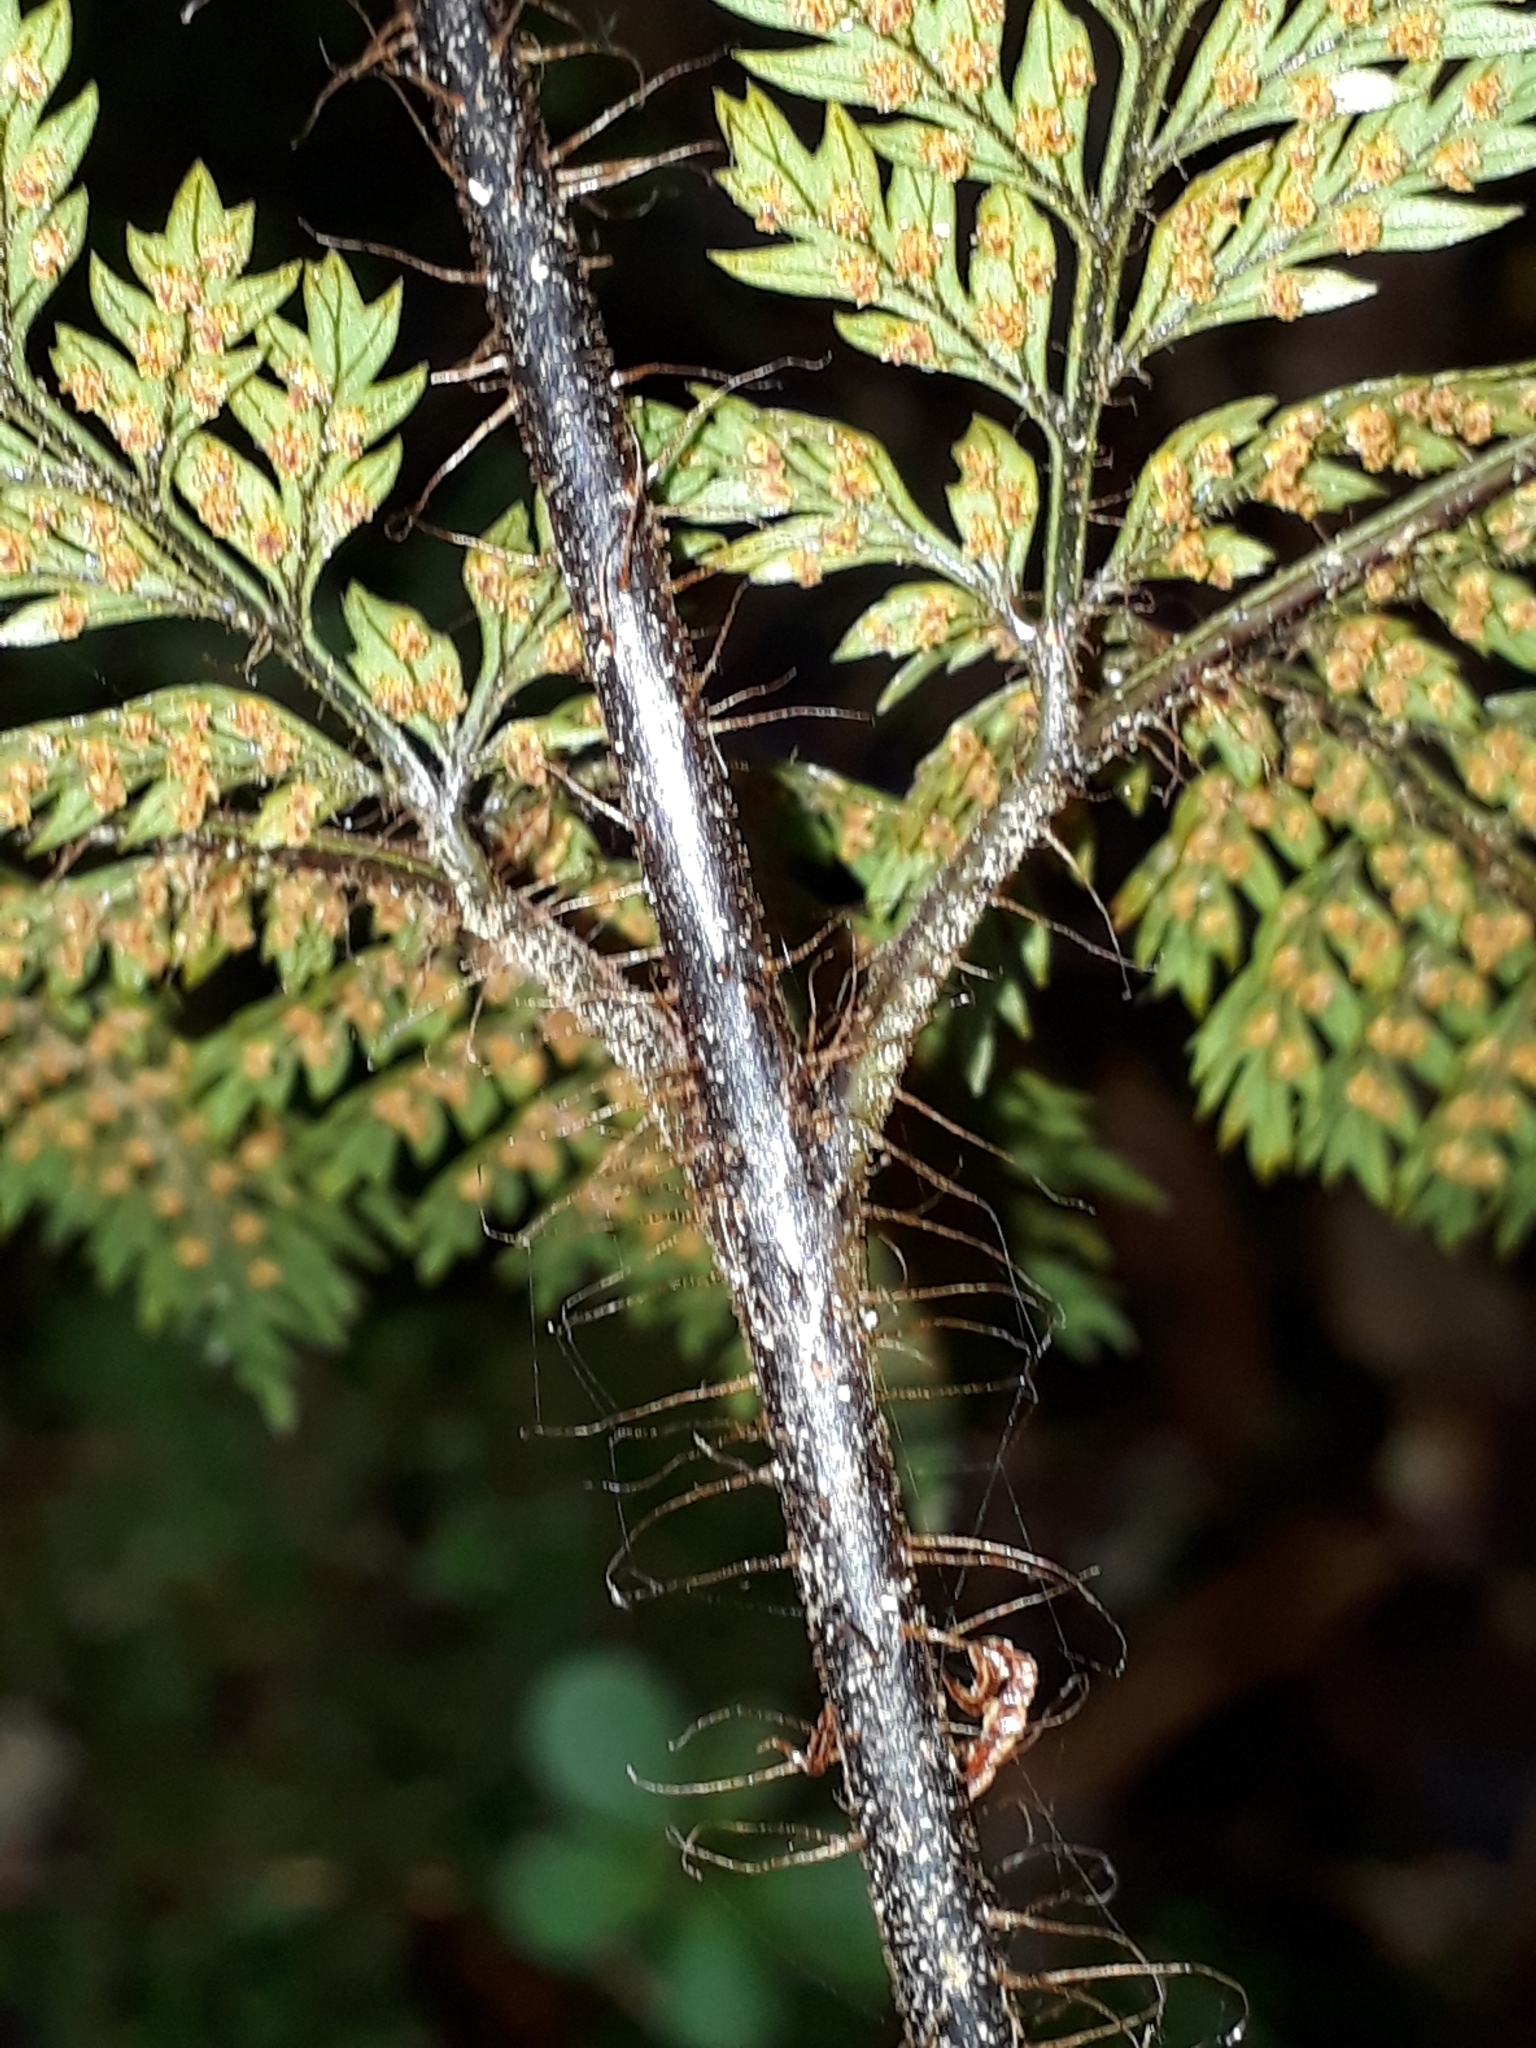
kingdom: Plantae
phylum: Tracheophyta
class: Polypodiopsida
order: Polypodiales
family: Dryopteridaceae
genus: Lastreopsis
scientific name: Lastreopsis hispida
